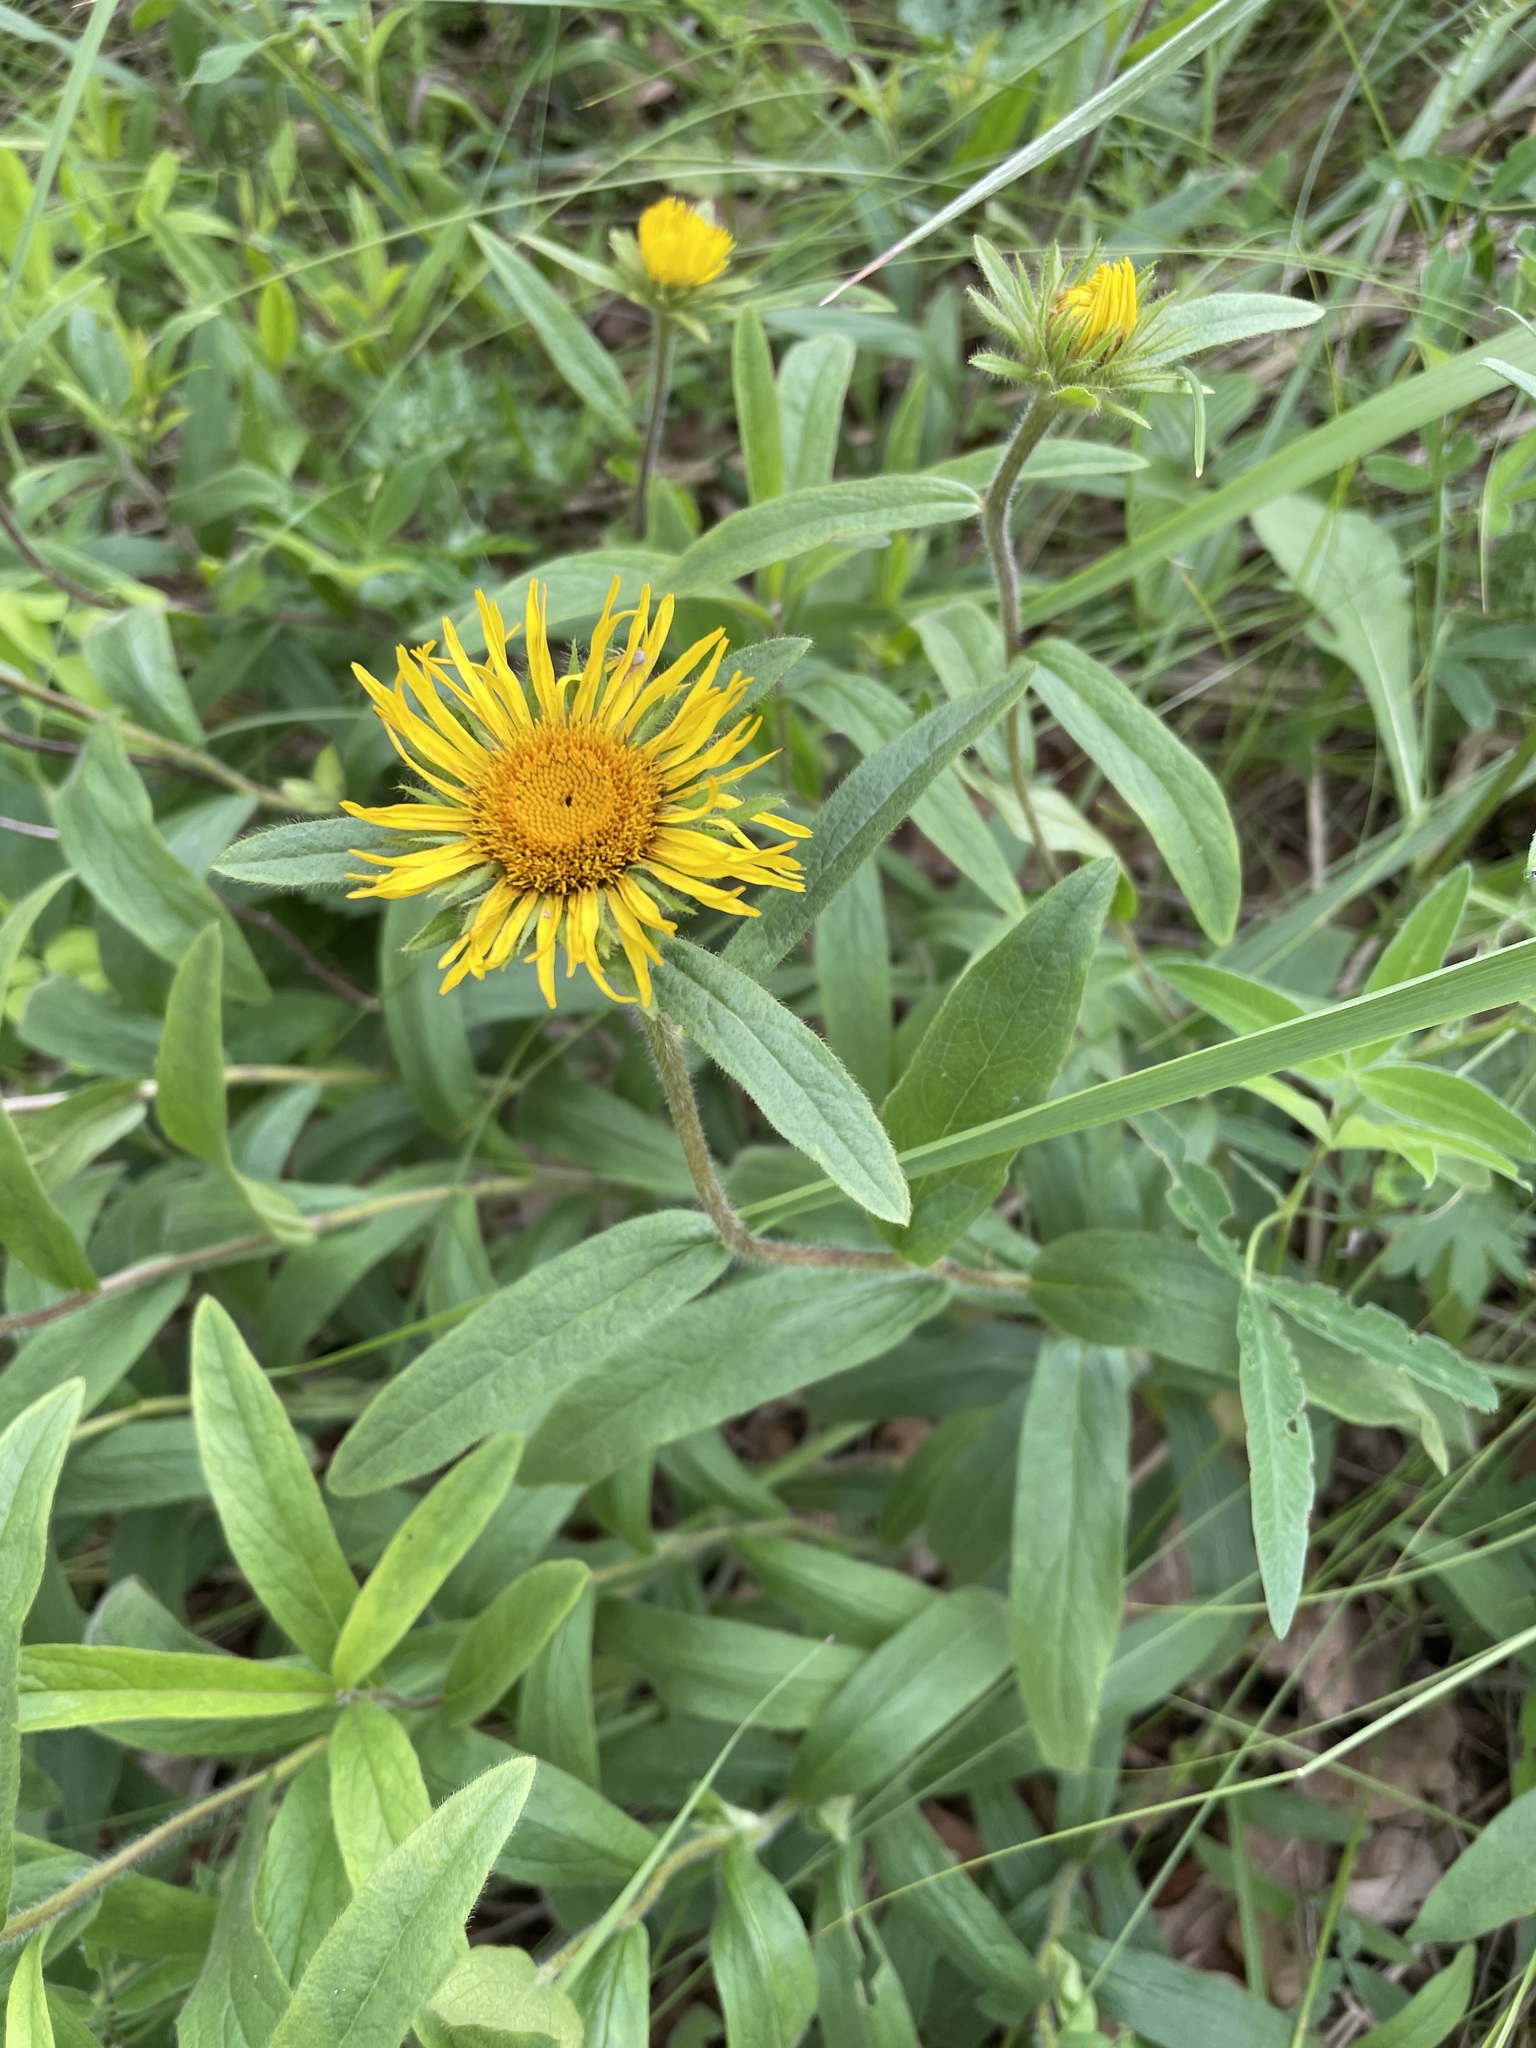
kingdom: Plantae
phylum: Tracheophyta
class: Magnoliopsida
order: Asterales
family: Asteraceae
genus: Pentanema
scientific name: Pentanema hirtum
